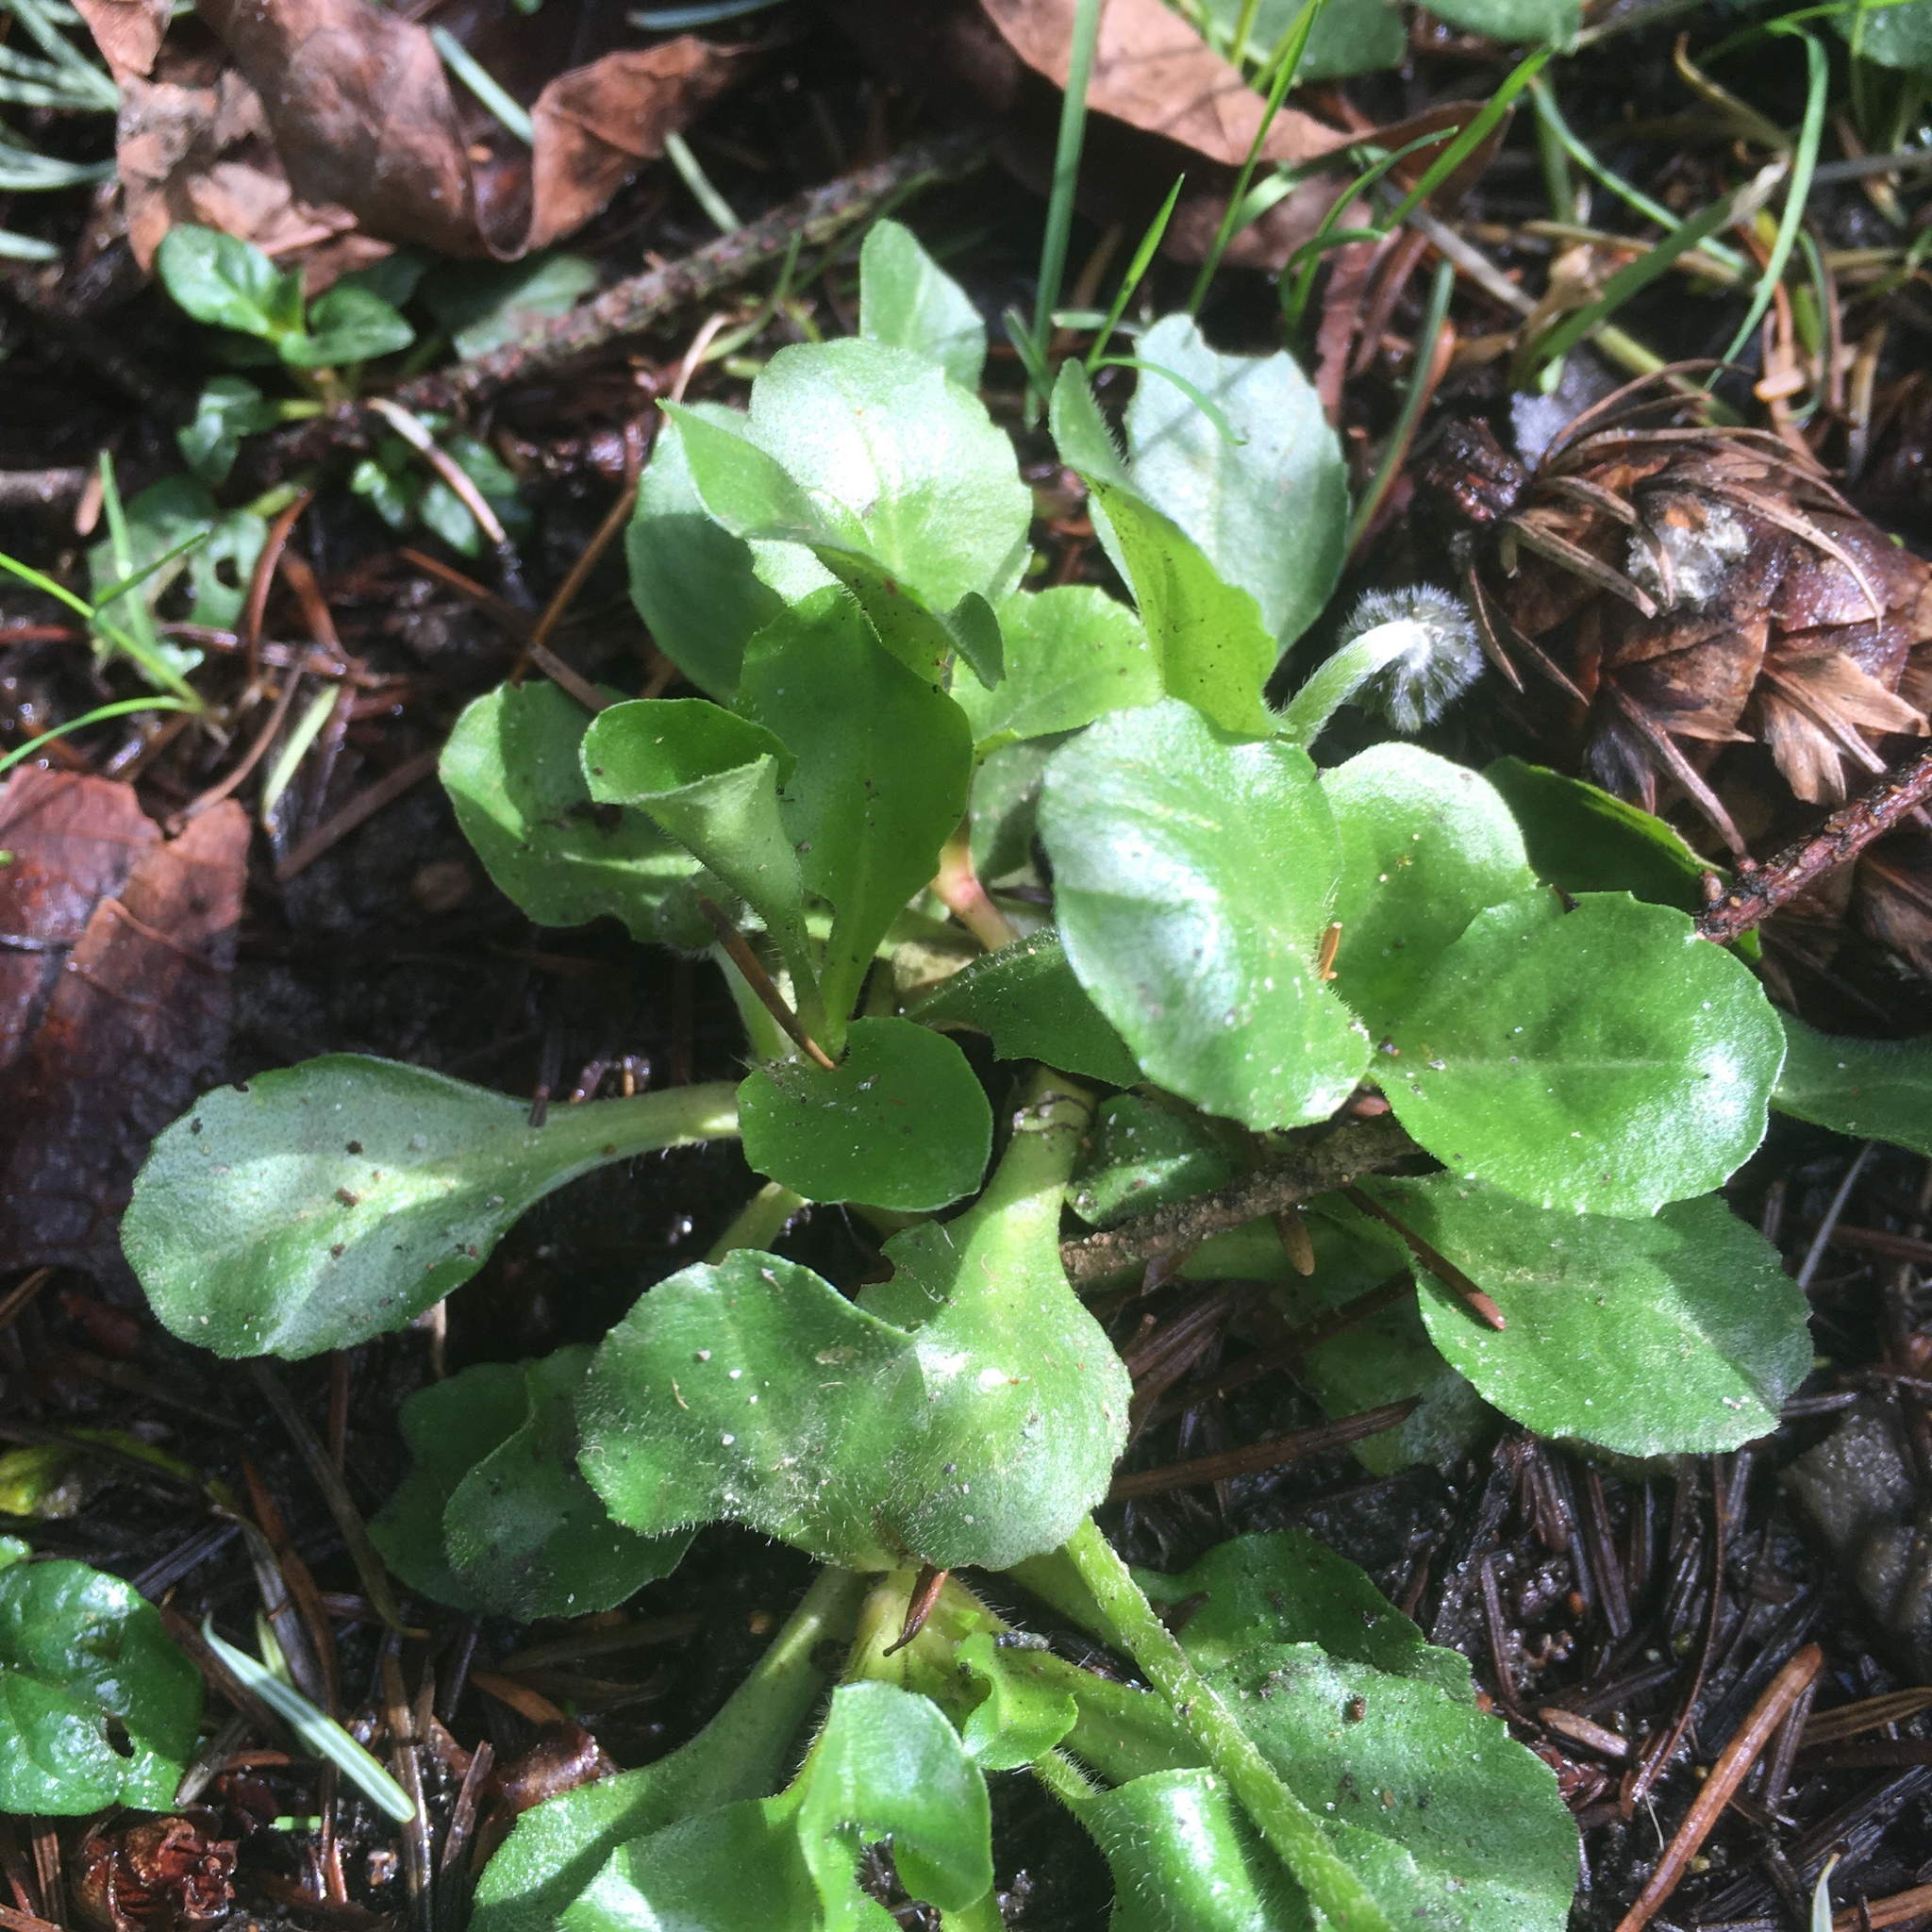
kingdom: Plantae
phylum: Tracheophyta
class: Magnoliopsida
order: Asterales
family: Asteraceae
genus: Bellis
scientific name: Bellis perennis
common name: Lawndaisy
